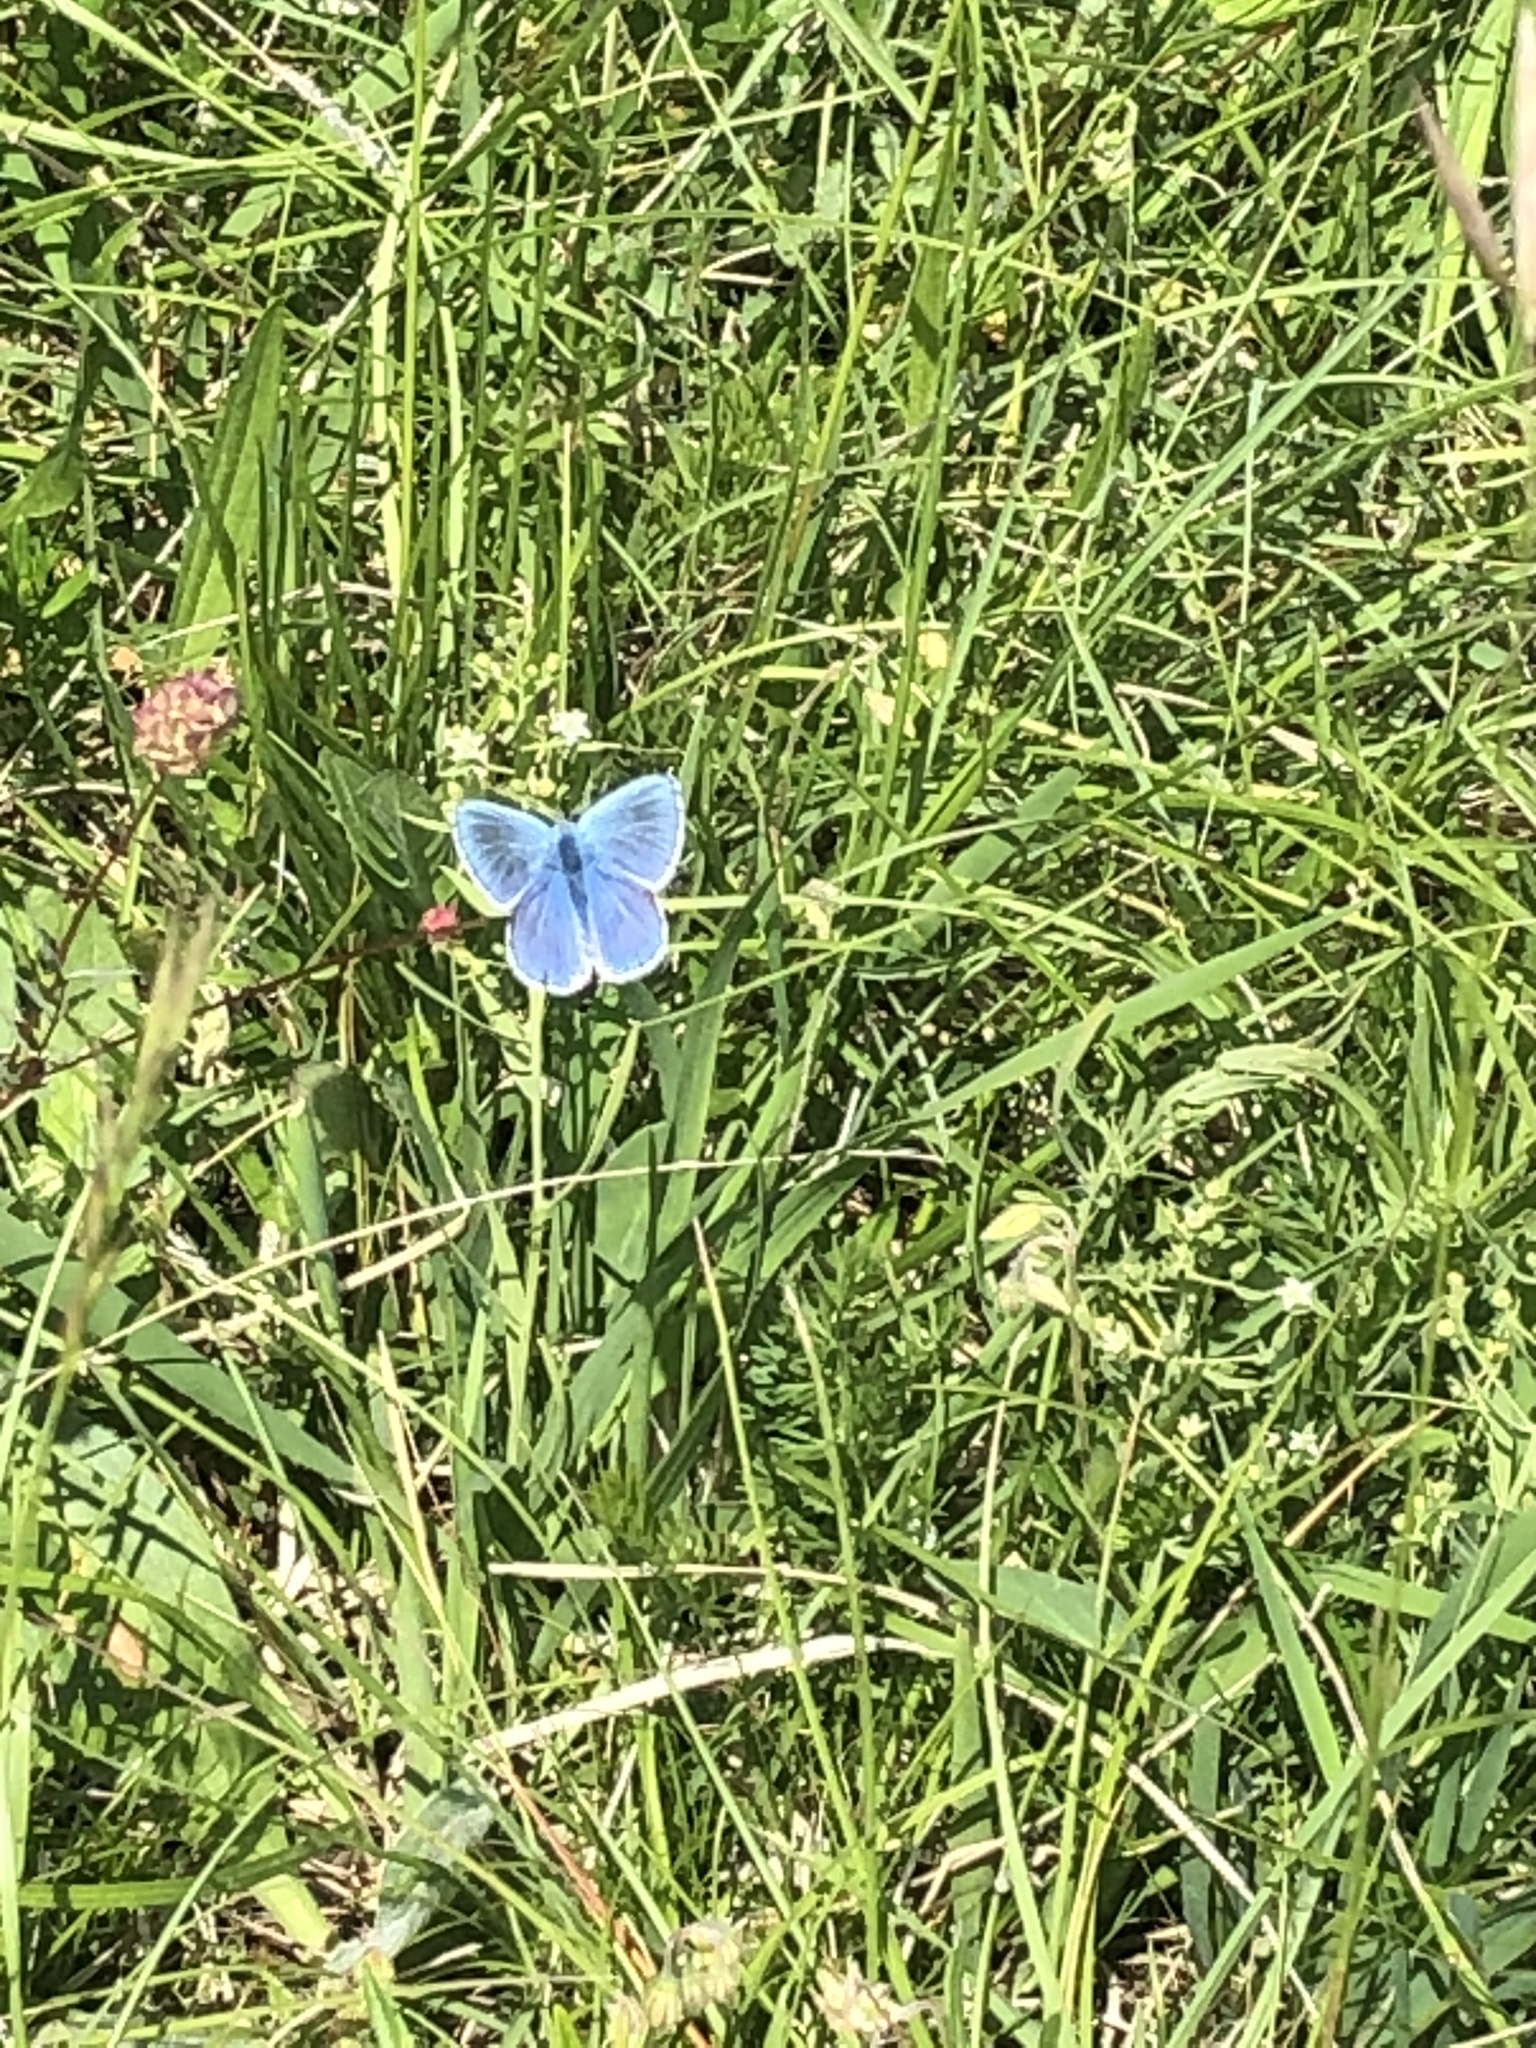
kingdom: Animalia
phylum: Arthropoda
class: Insecta
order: Lepidoptera
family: Lycaenidae
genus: Lysandra
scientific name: Lysandra bellargus
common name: Adonis blue
